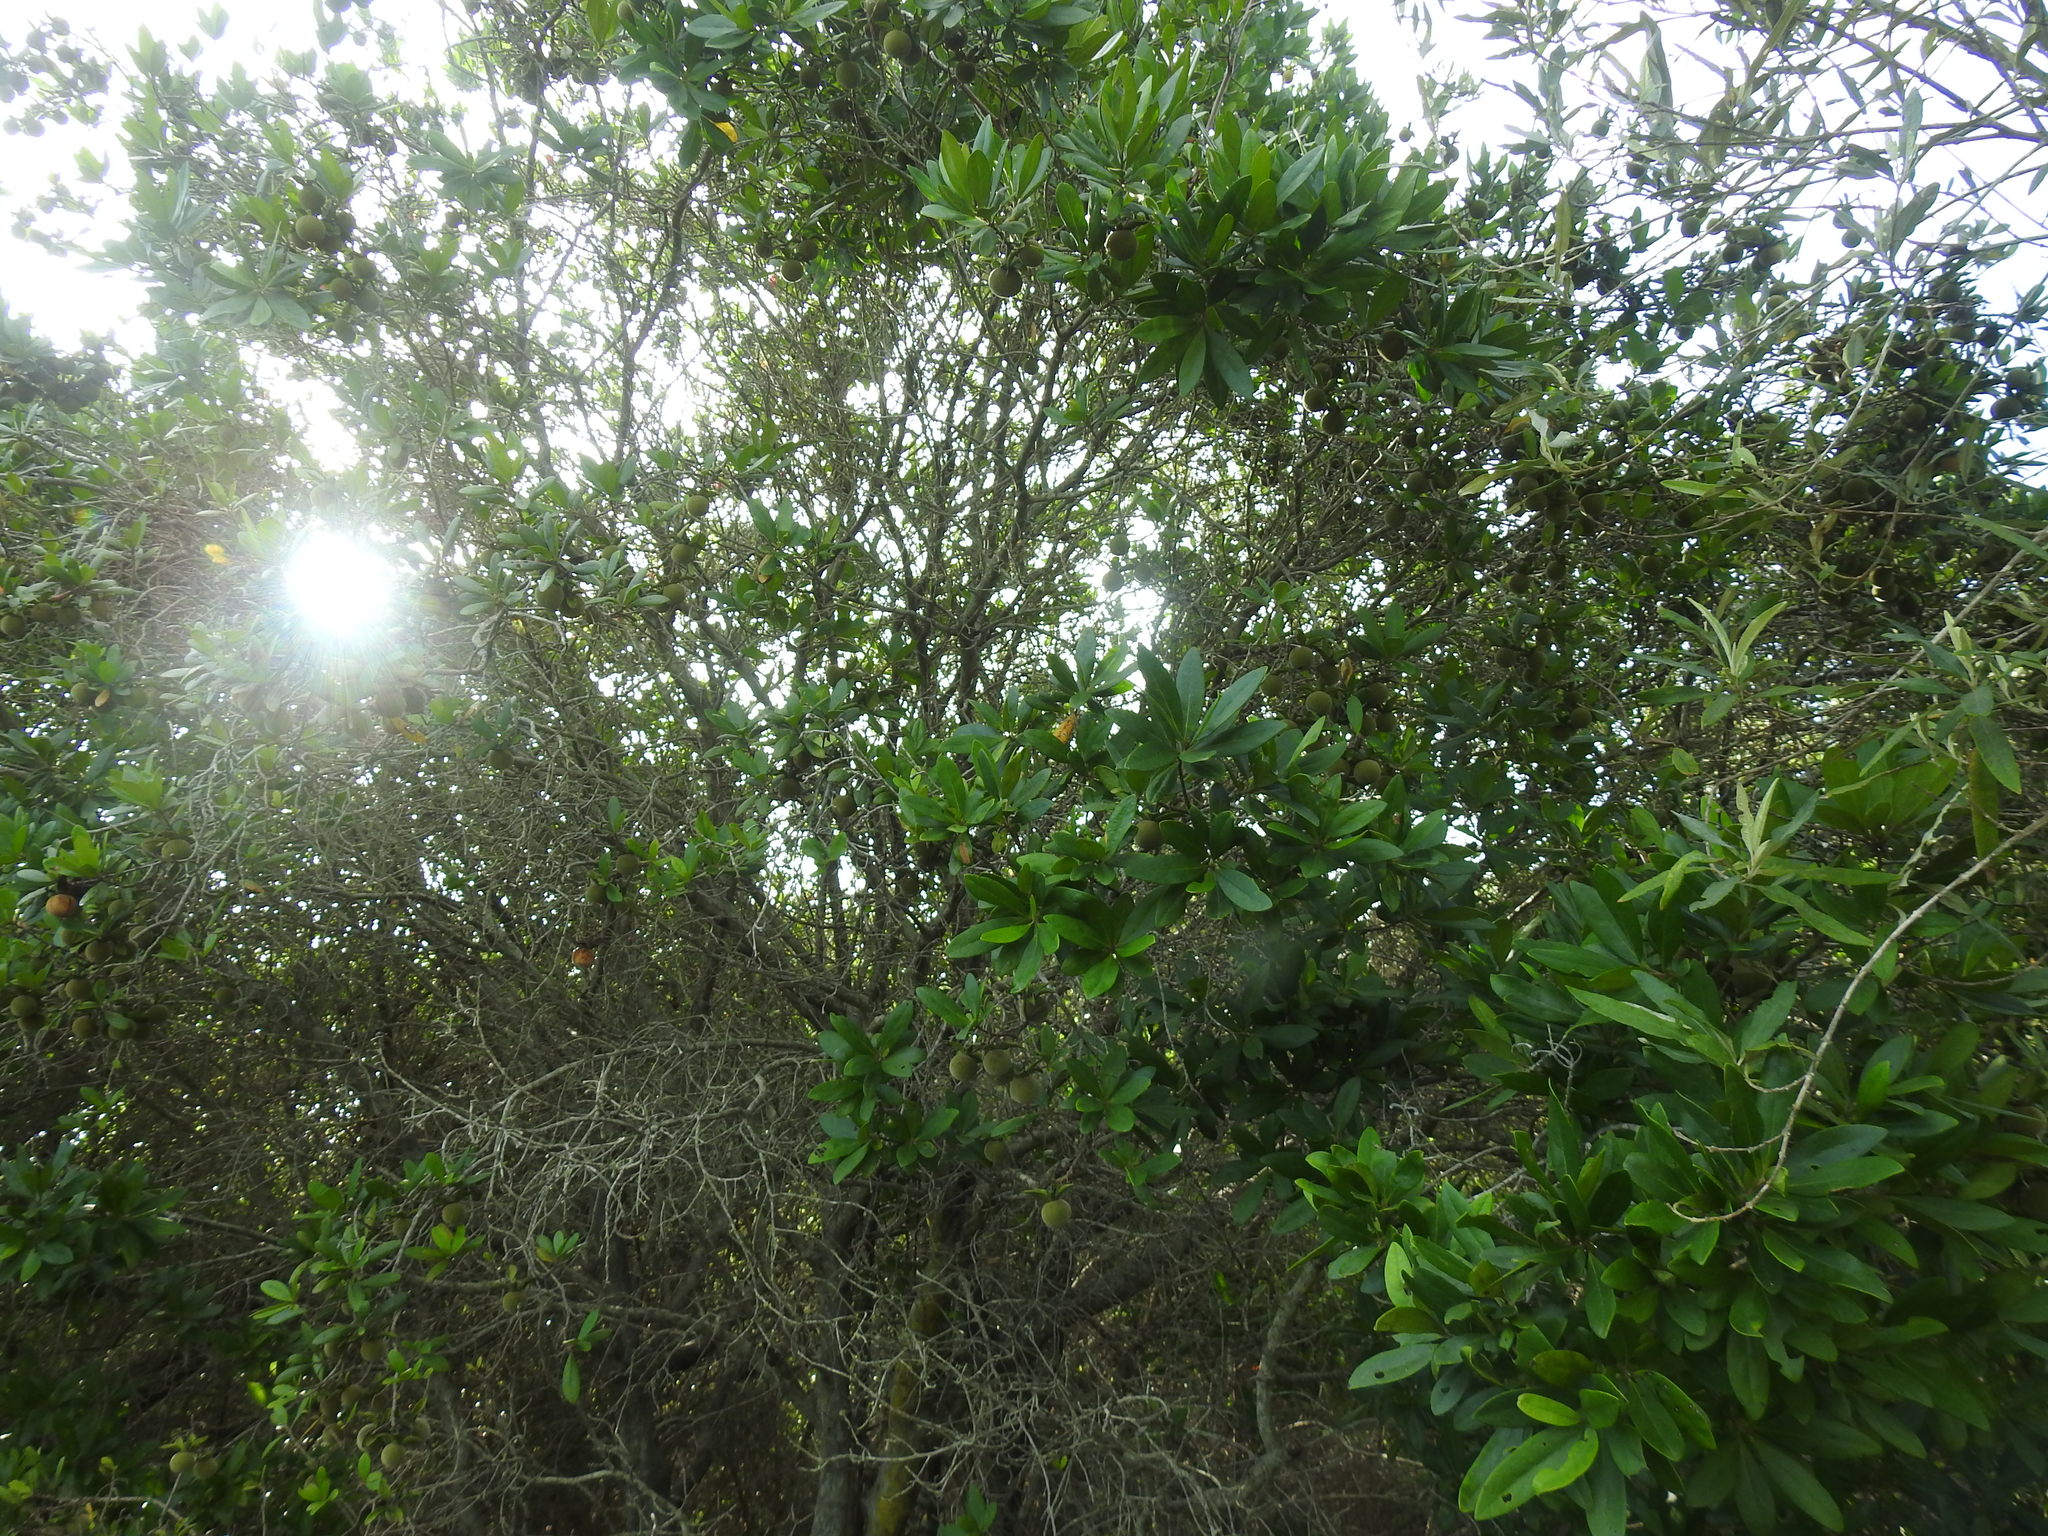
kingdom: Plantae
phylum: Tracheophyta
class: Magnoliopsida
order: Ericales
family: Ebenaceae
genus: Diospyros
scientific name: Diospyros dichrophylla
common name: Common star-apple
